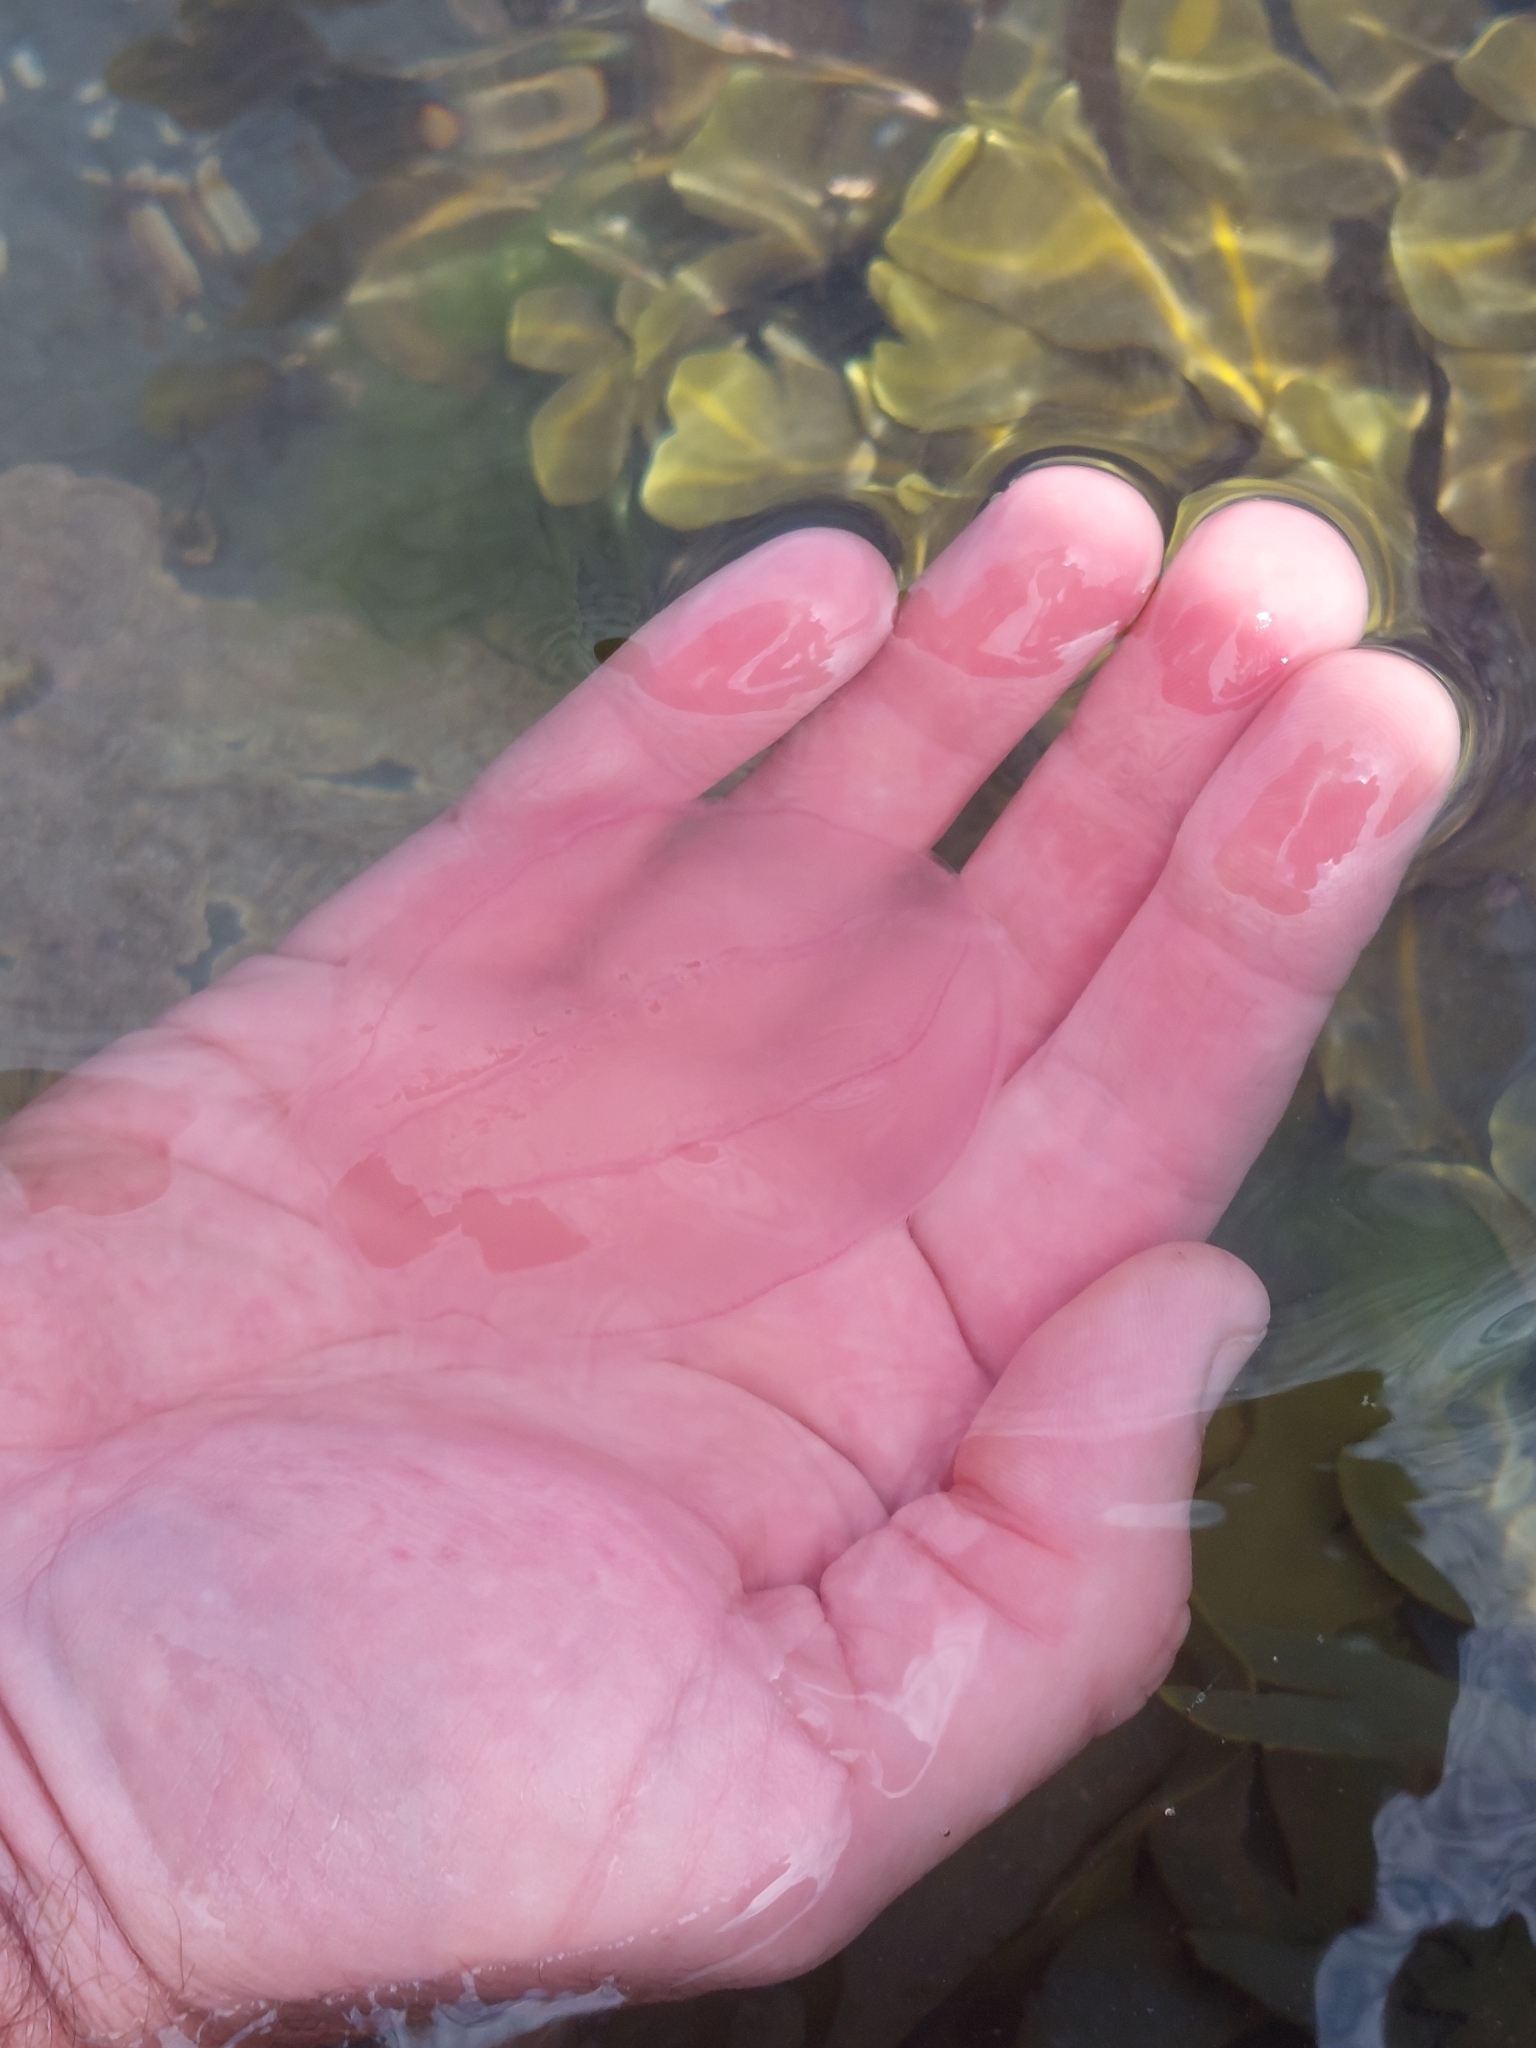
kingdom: Animalia
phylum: Ctenophora
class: Nuda
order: Beroida
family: Beroidae
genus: Beroe
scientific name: Beroe cucumis
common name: Beroe
